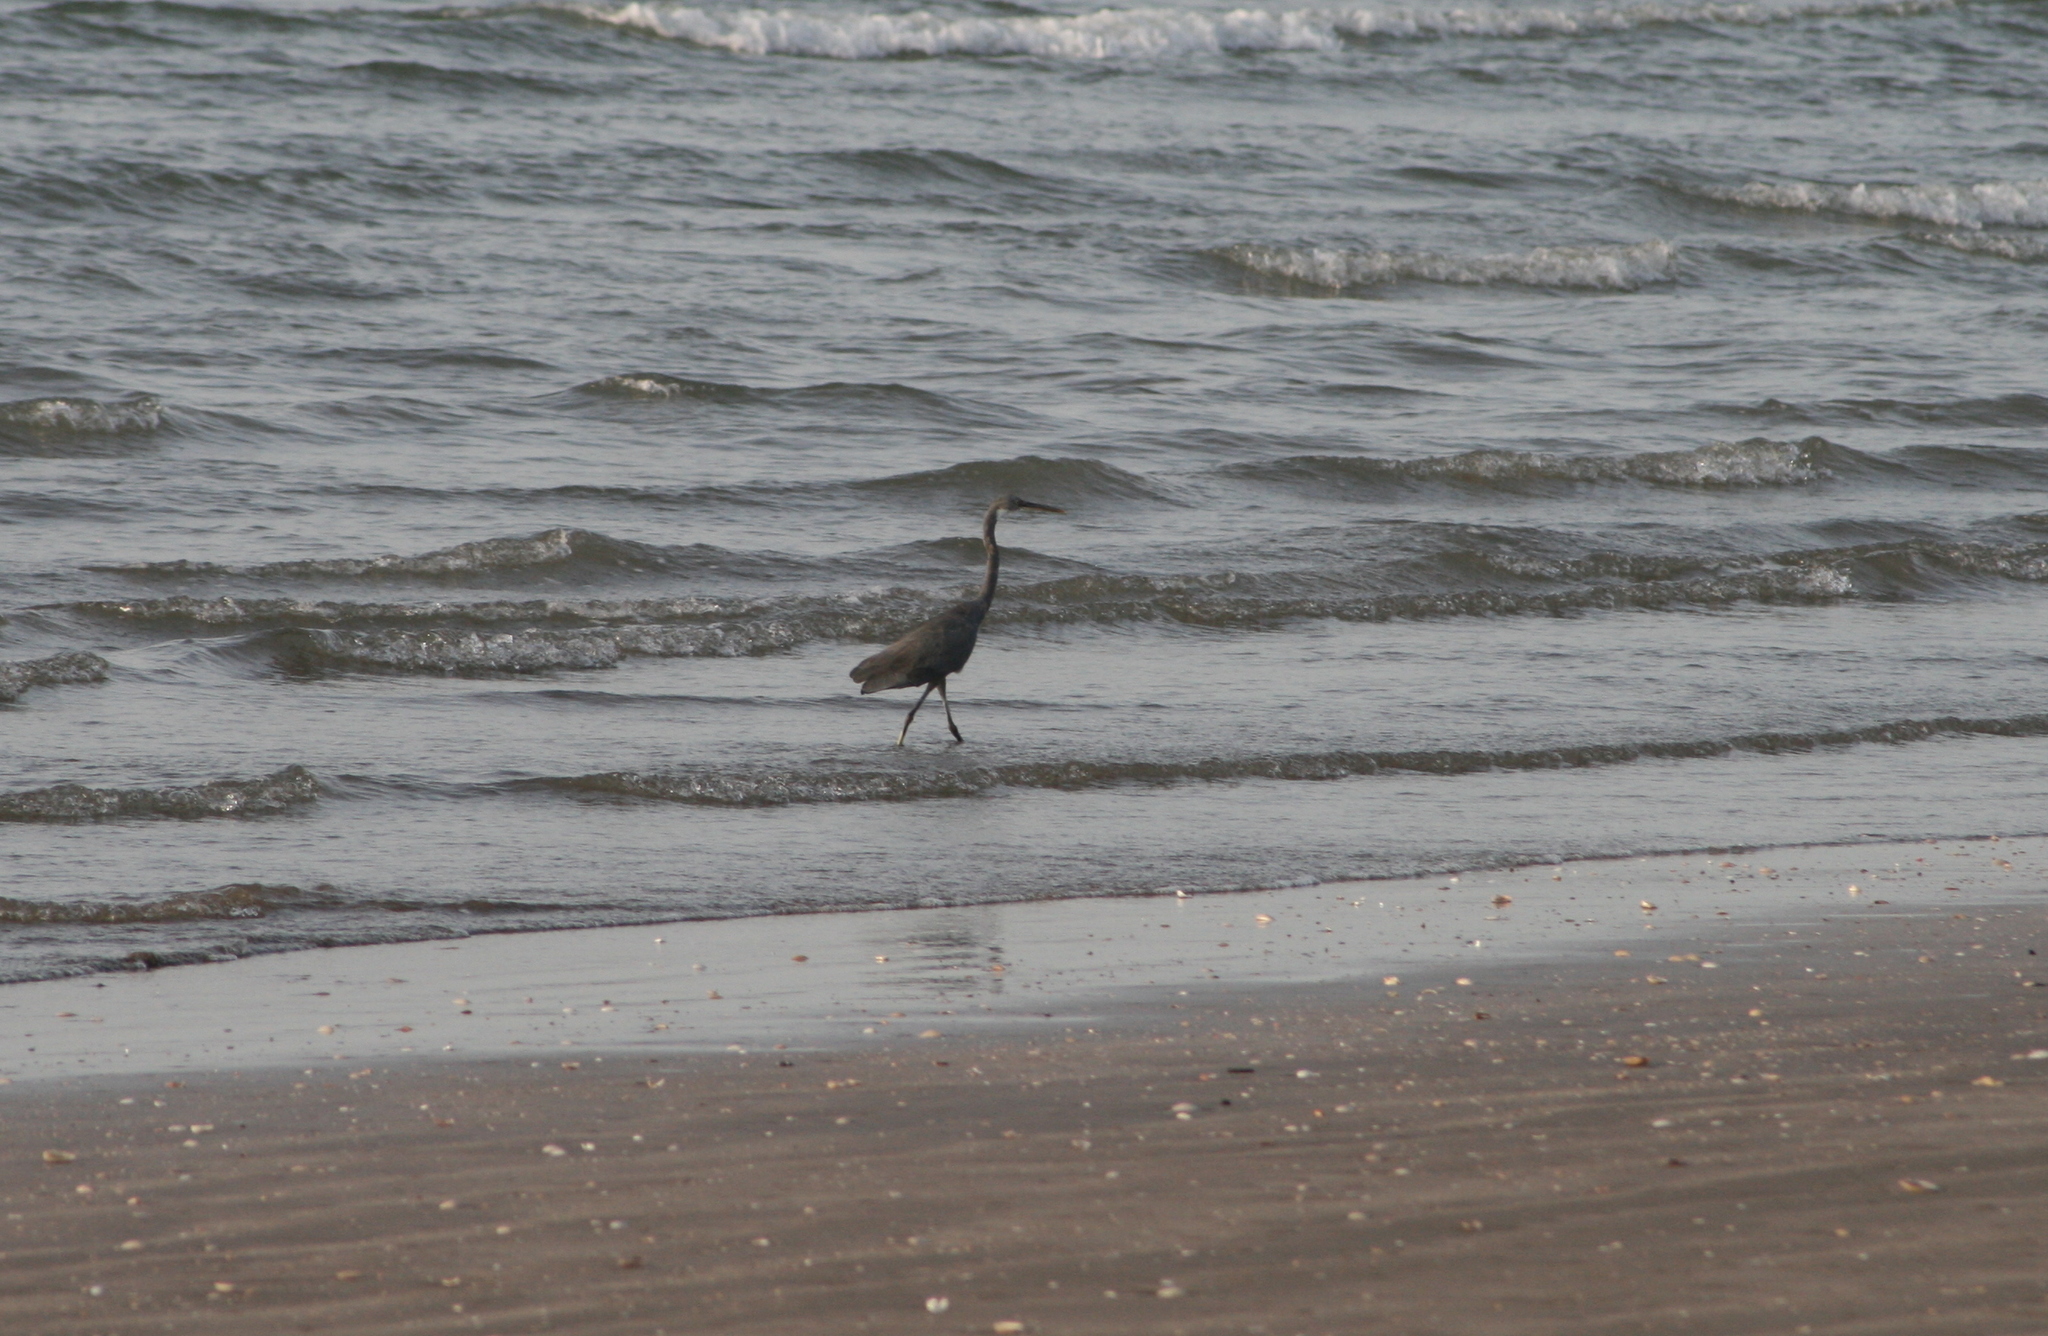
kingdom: Animalia
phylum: Chordata
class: Aves
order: Pelecaniformes
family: Ardeidae
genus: Egretta
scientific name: Egretta gularis
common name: Western reef-heron
